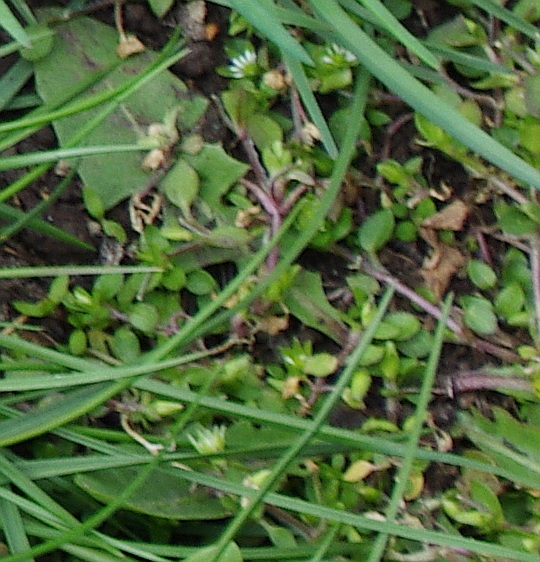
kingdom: Plantae
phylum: Tracheophyta
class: Magnoliopsida
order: Caryophyllales
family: Caryophyllaceae
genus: Stellaria
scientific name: Stellaria media
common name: Common chickweed
